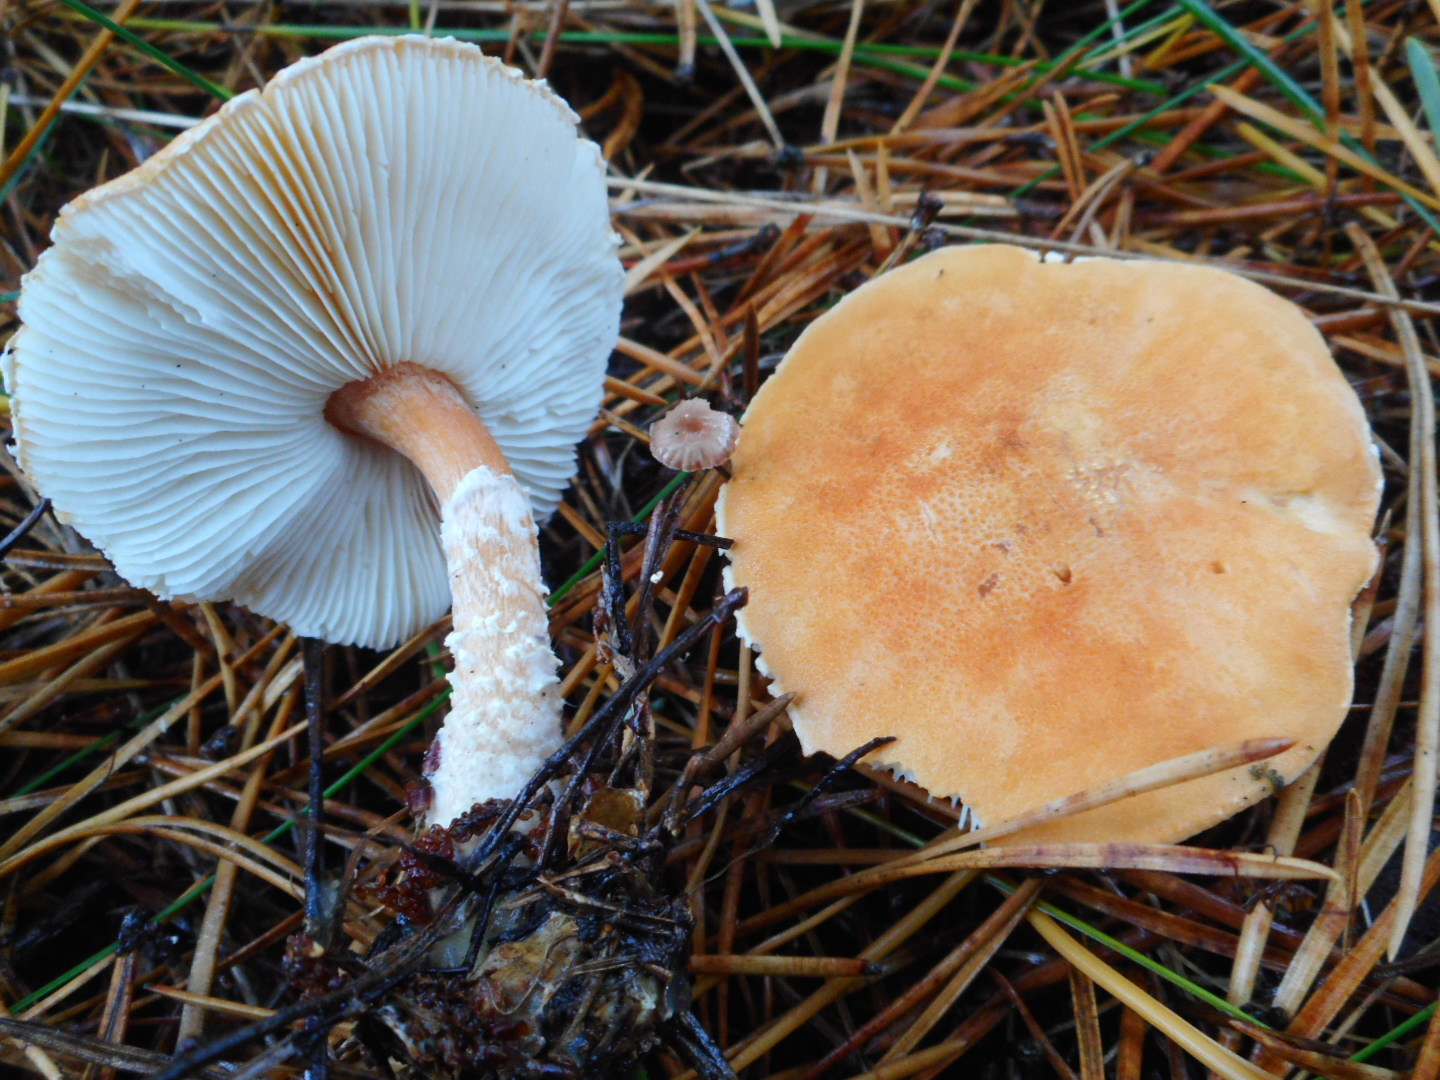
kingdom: Fungi
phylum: Basidiomycota
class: Agaricomycetes
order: Agaricales
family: Agaricaceae
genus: Cystodermella
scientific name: Cystodermella granulosa
